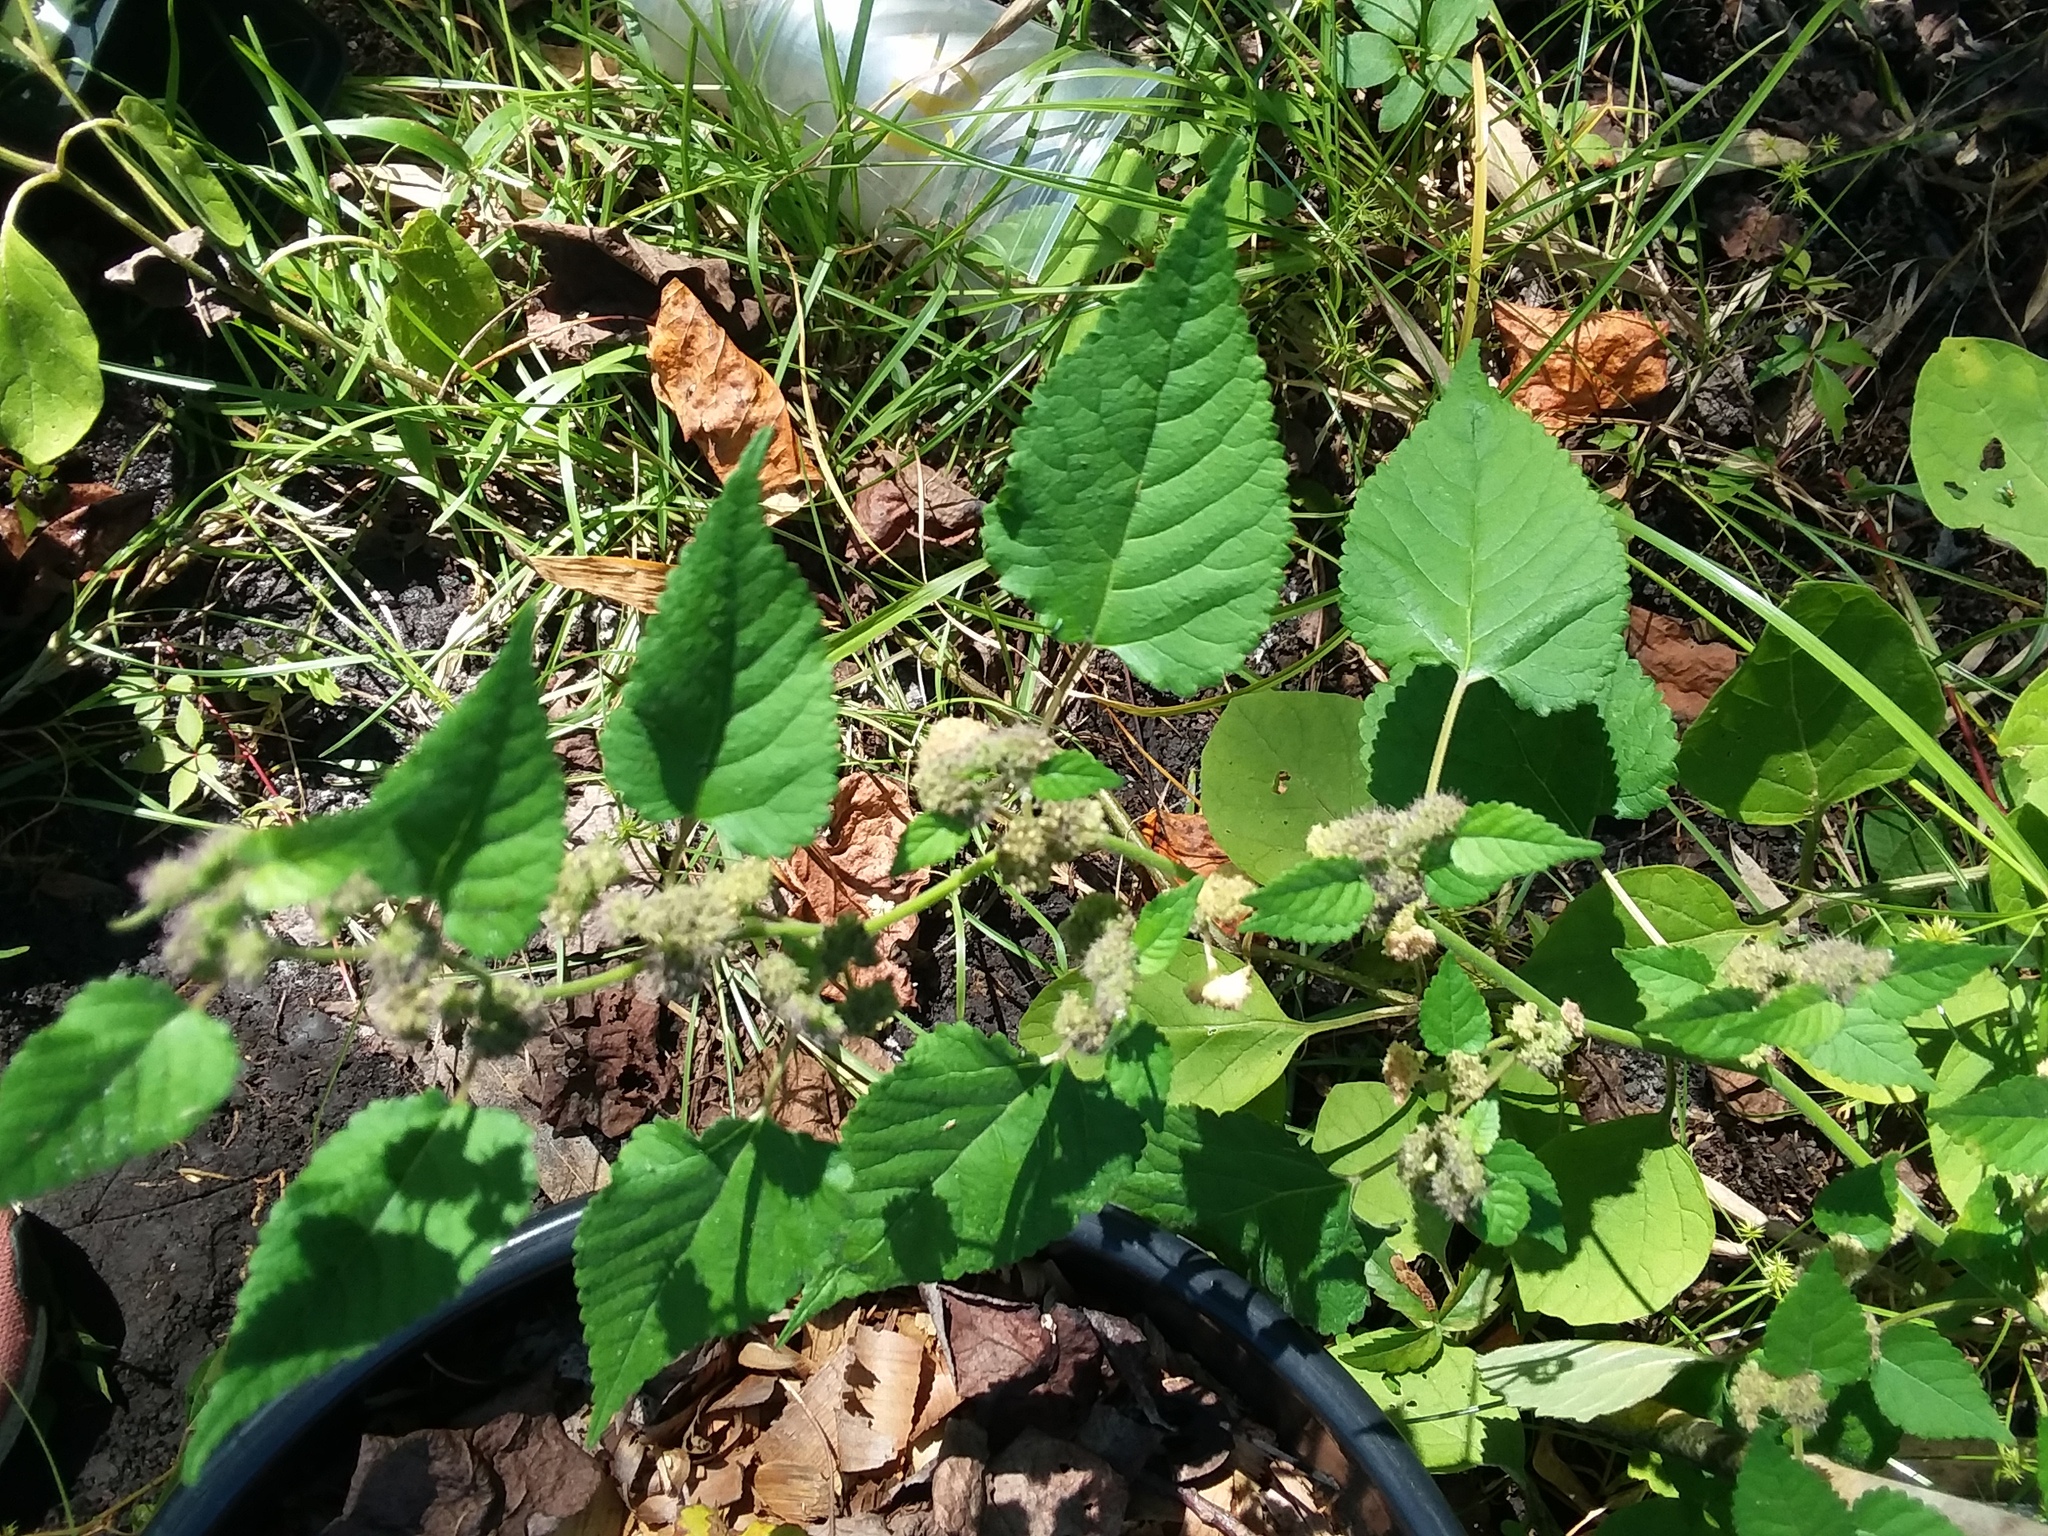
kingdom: Plantae
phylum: Tracheophyta
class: Magnoliopsida
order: Rosales
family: Moraceae
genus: Fatoua
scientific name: Fatoua villosa
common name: Hairy crabweed
